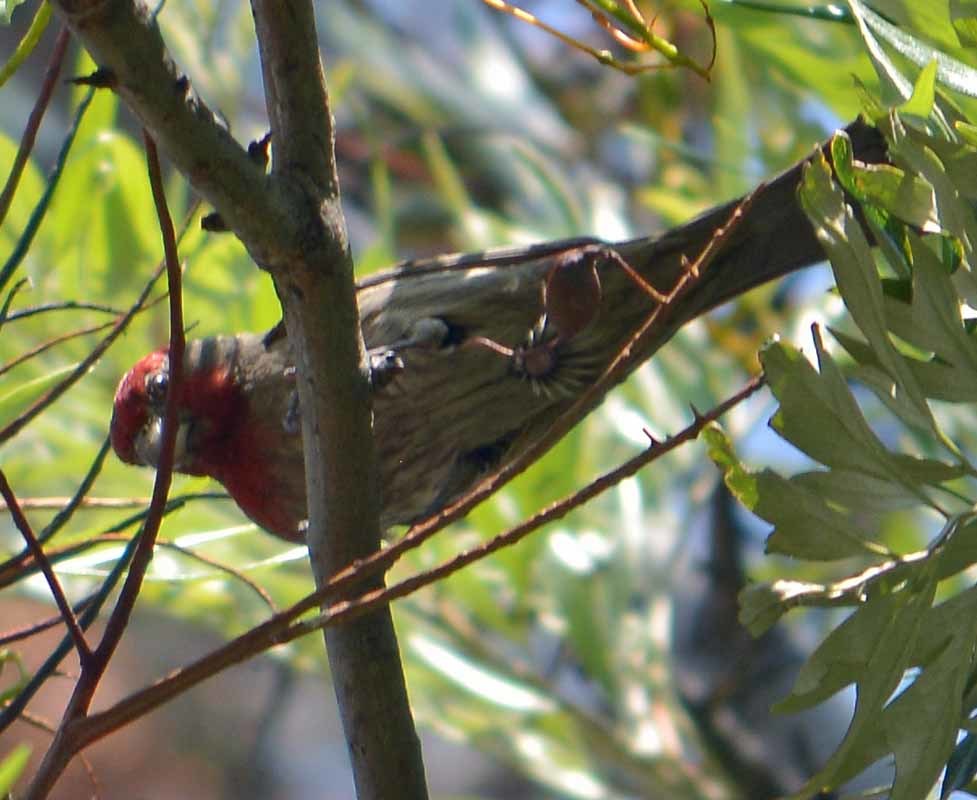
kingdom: Animalia
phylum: Chordata
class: Aves
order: Passeriformes
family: Fringillidae
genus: Haemorhous
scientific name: Haemorhous mexicanus
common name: House finch
